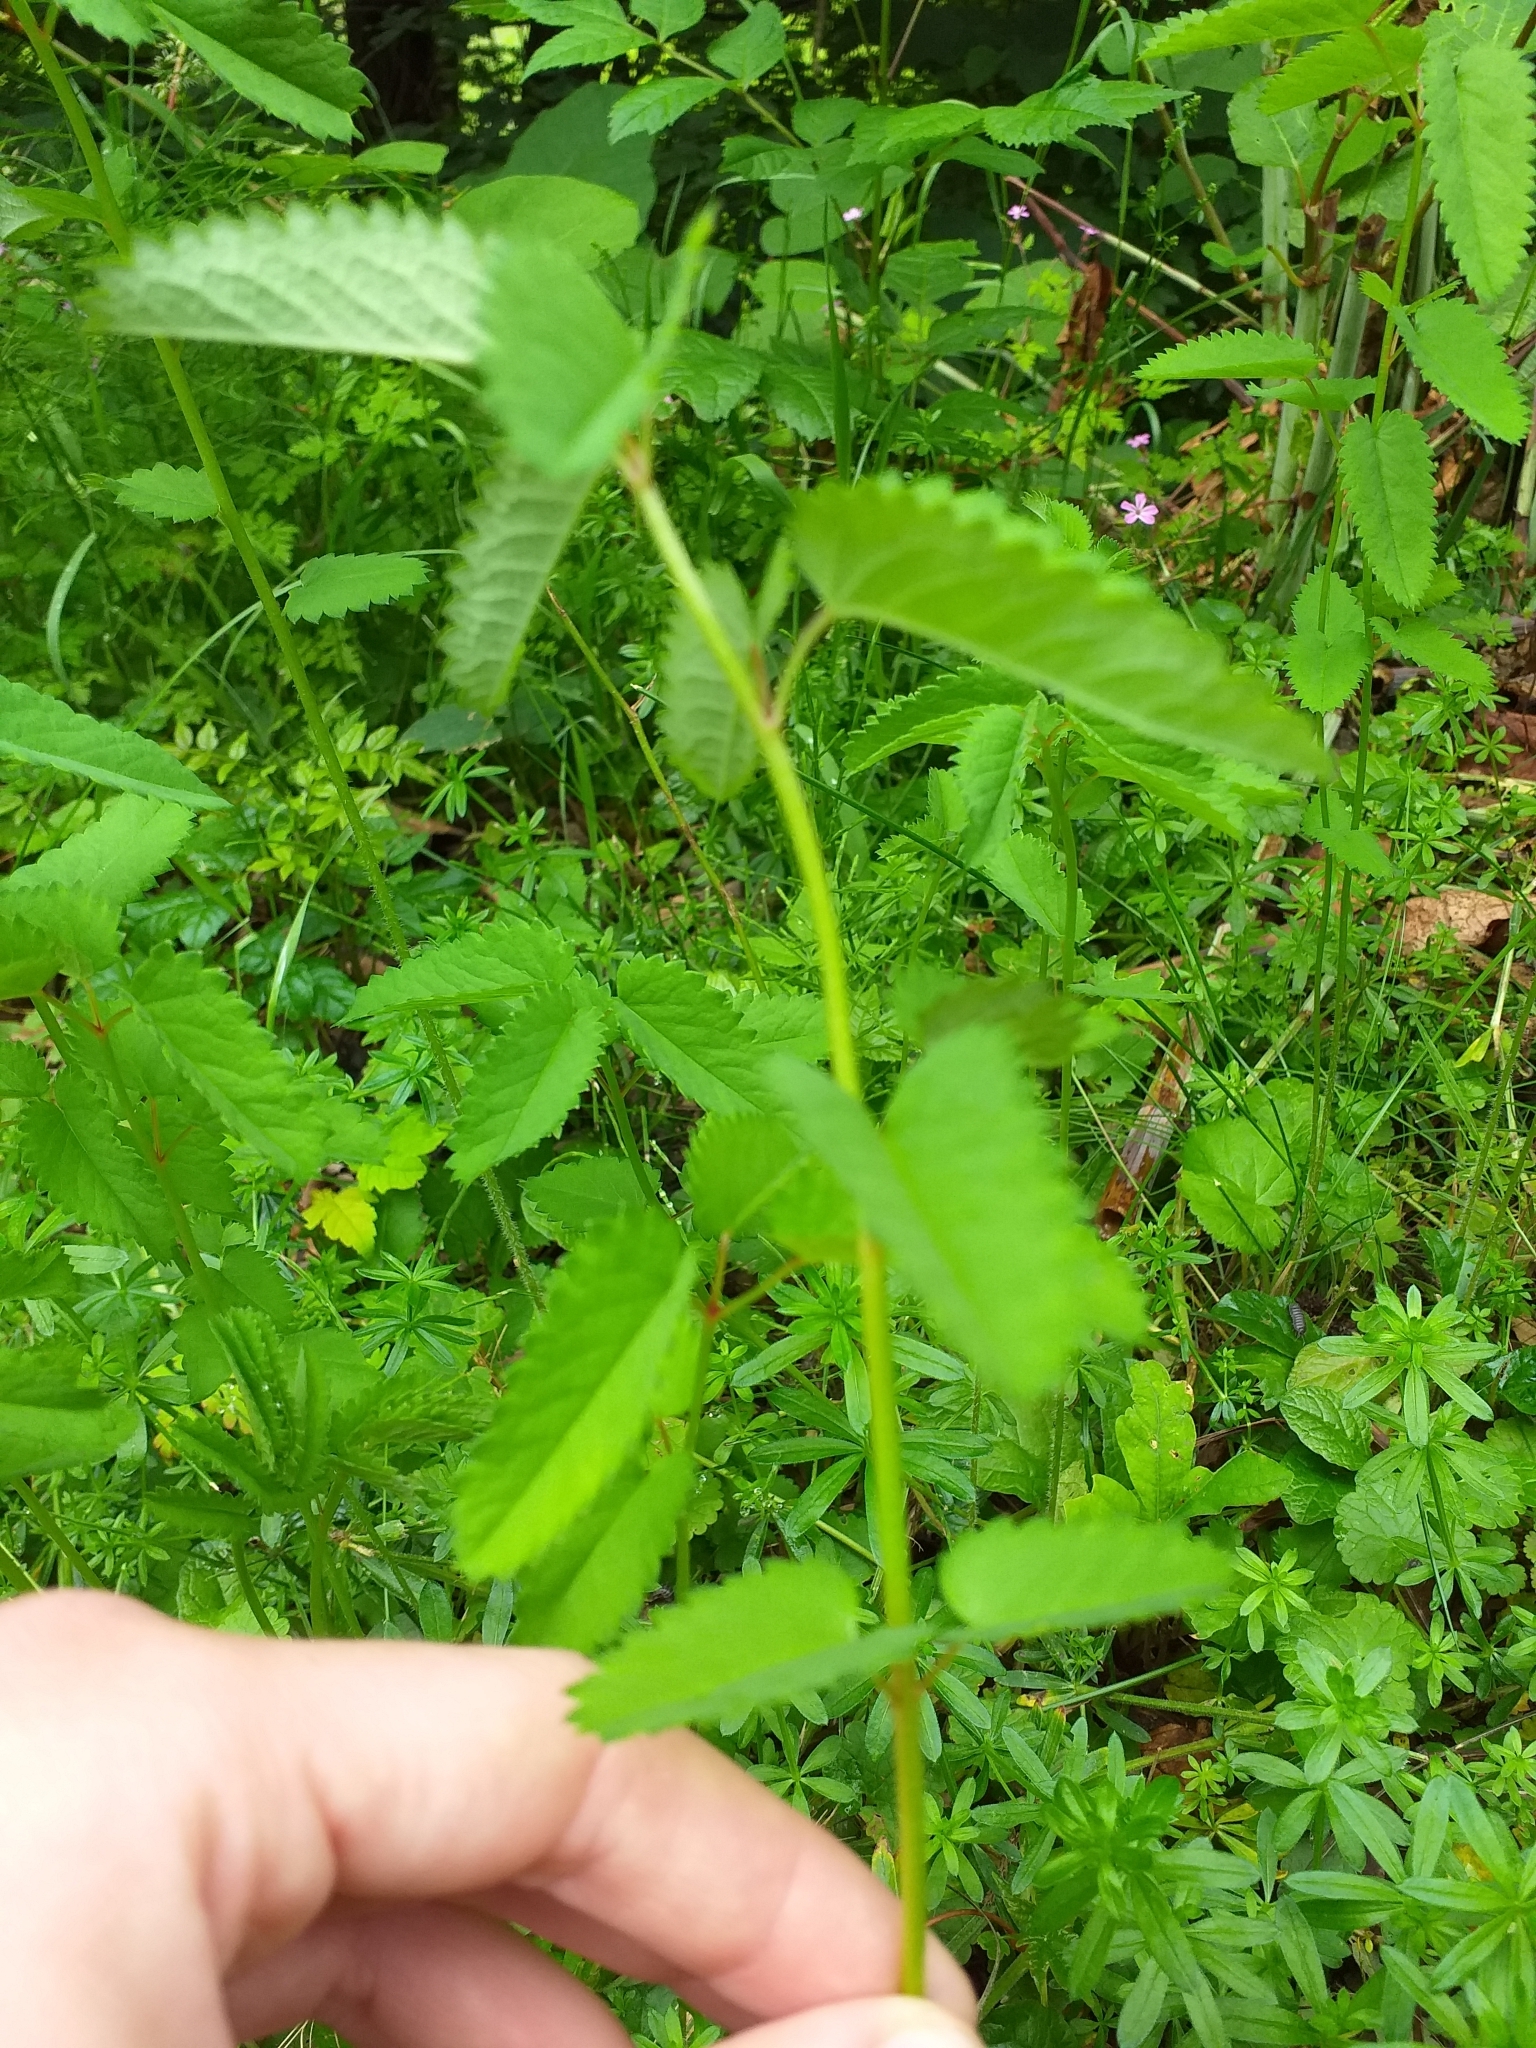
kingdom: Plantae
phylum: Tracheophyta
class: Magnoliopsida
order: Rosales
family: Rosaceae
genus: Sanguisorba
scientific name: Sanguisorba officinalis
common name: Great burnet
